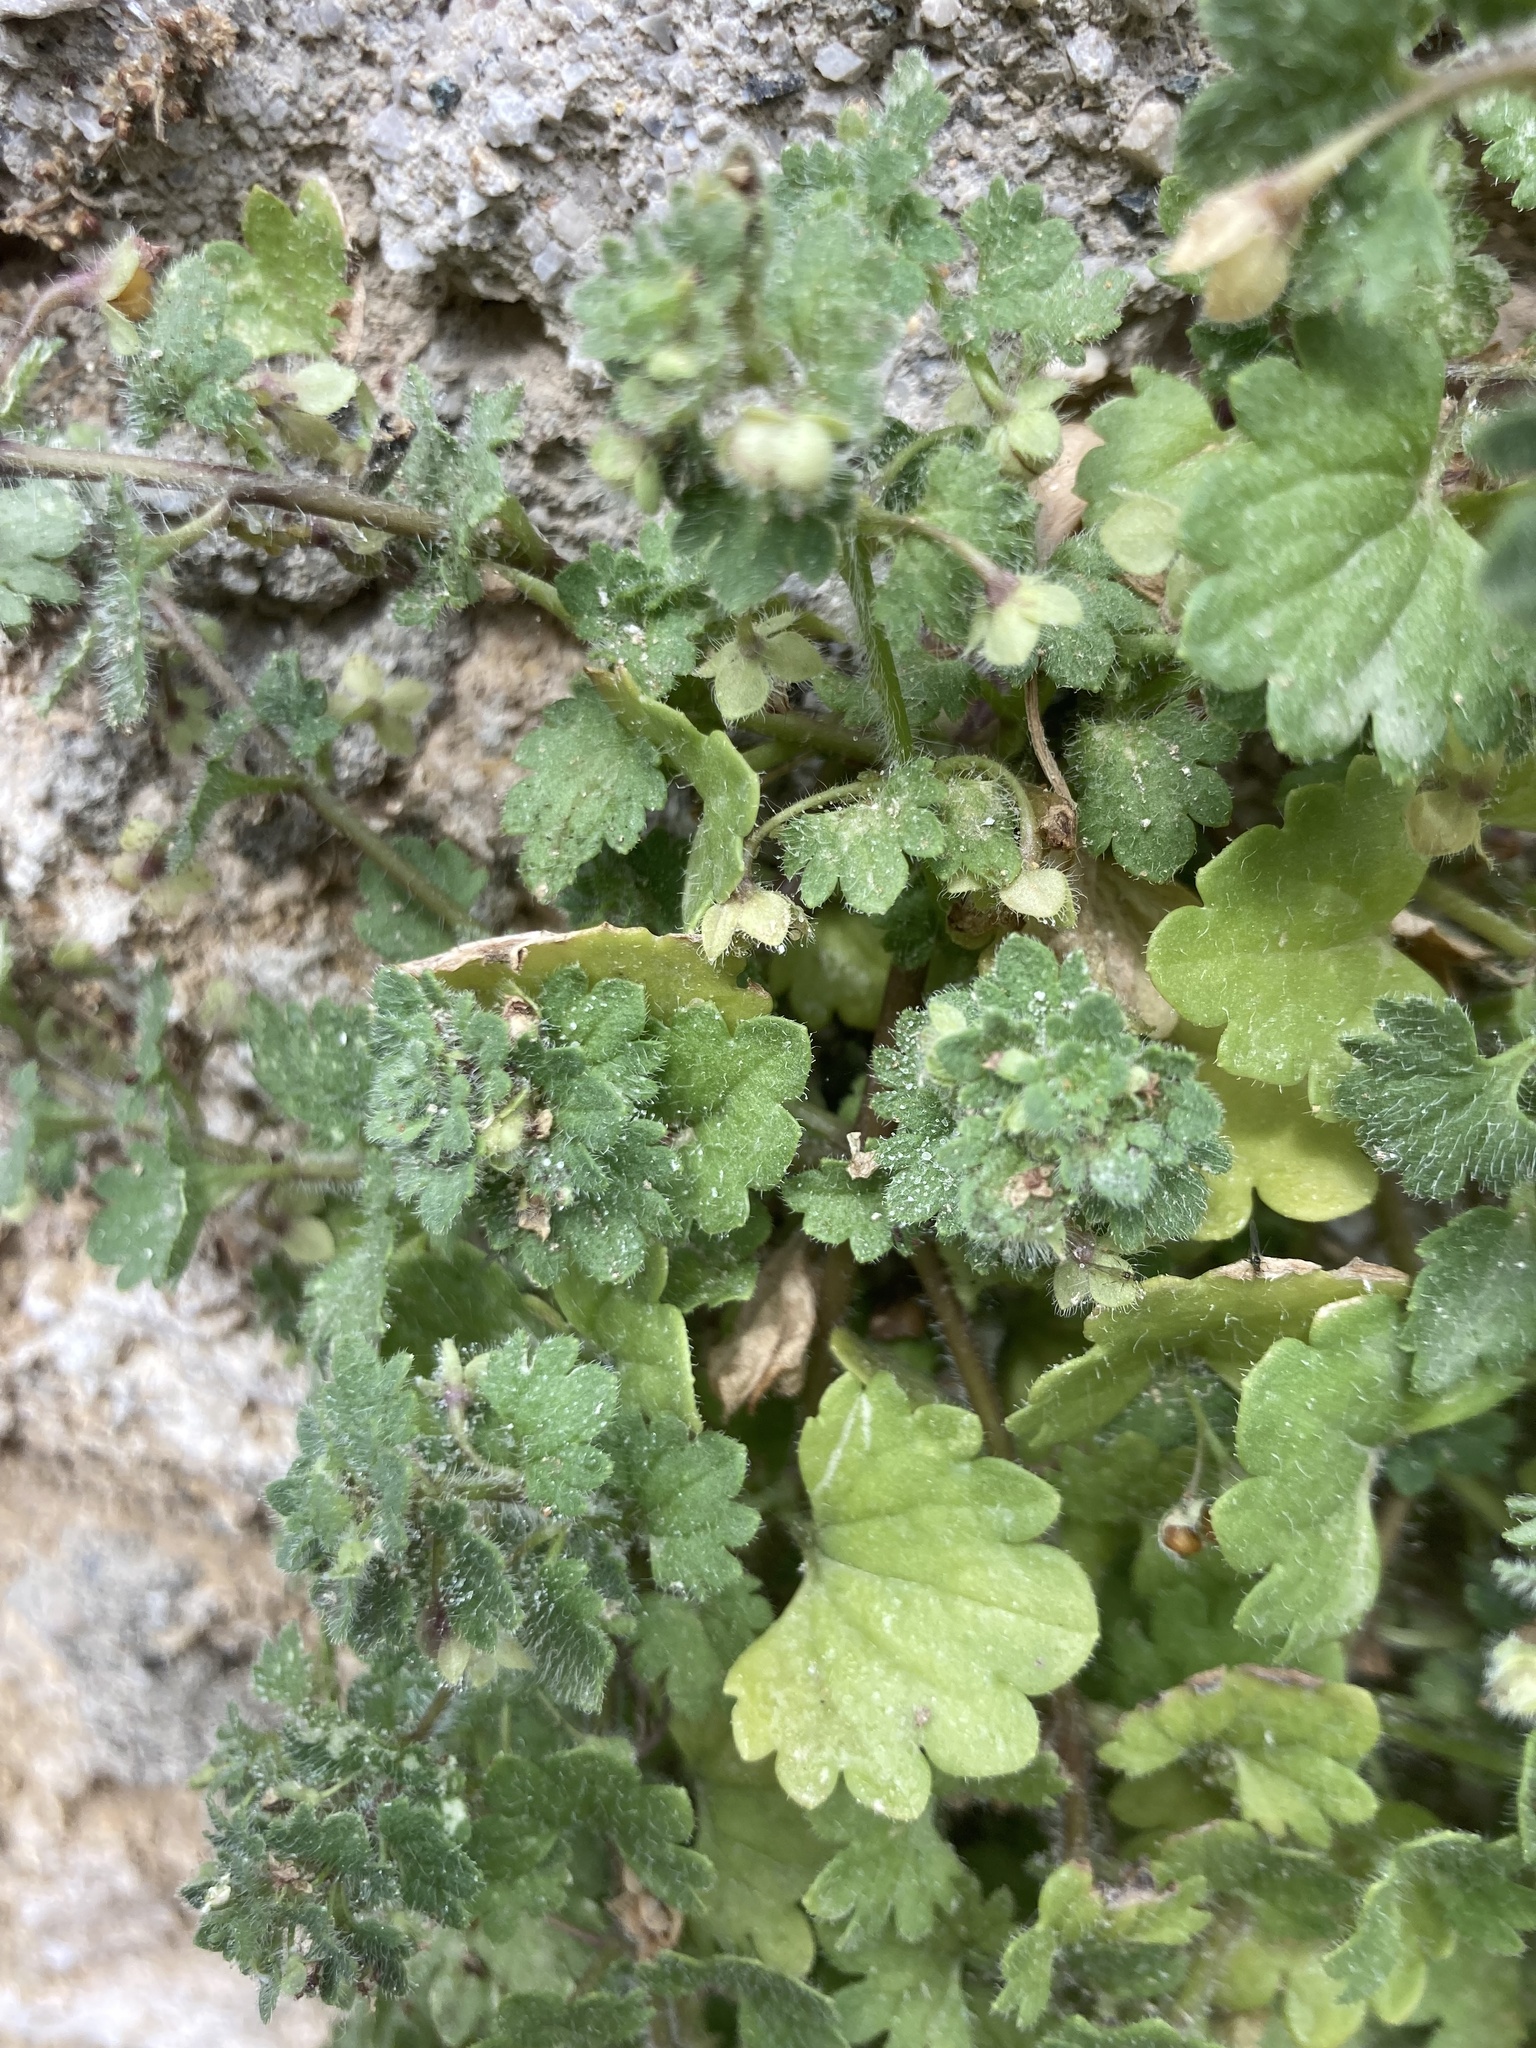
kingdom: Plantae
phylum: Tracheophyta
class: Magnoliopsida
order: Lamiales
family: Plantaginaceae
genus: Veronica
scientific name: Veronica
